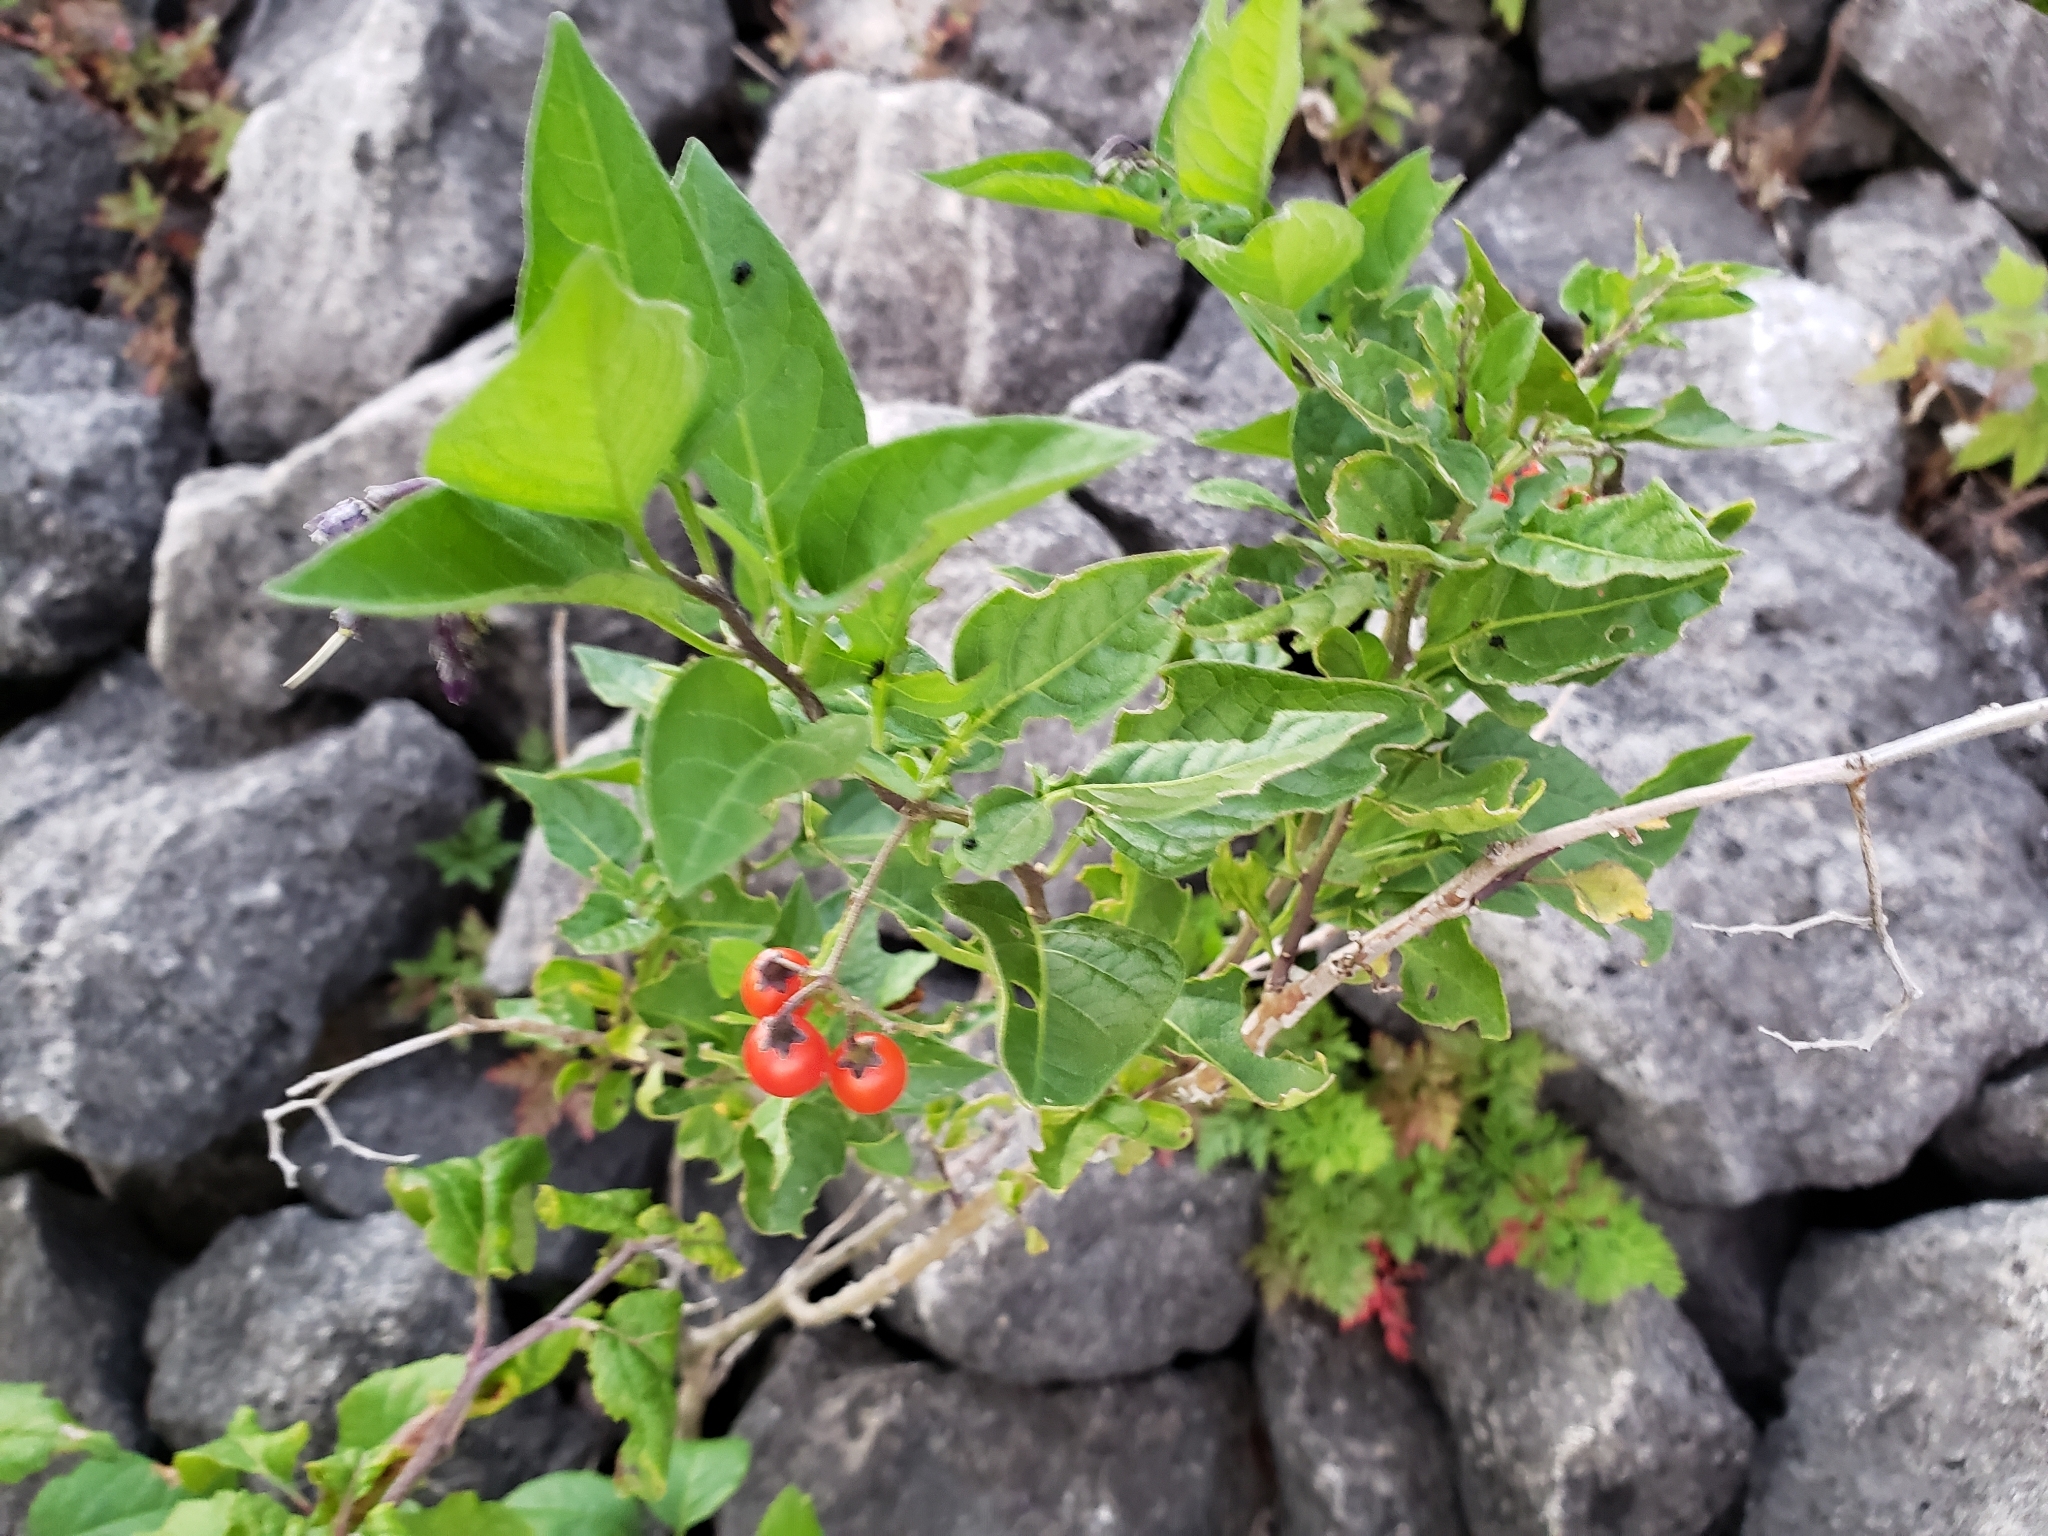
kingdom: Plantae
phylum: Tracheophyta
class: Magnoliopsida
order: Solanales
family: Solanaceae
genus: Solanum
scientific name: Solanum dulcamara
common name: Climbing nightshade
